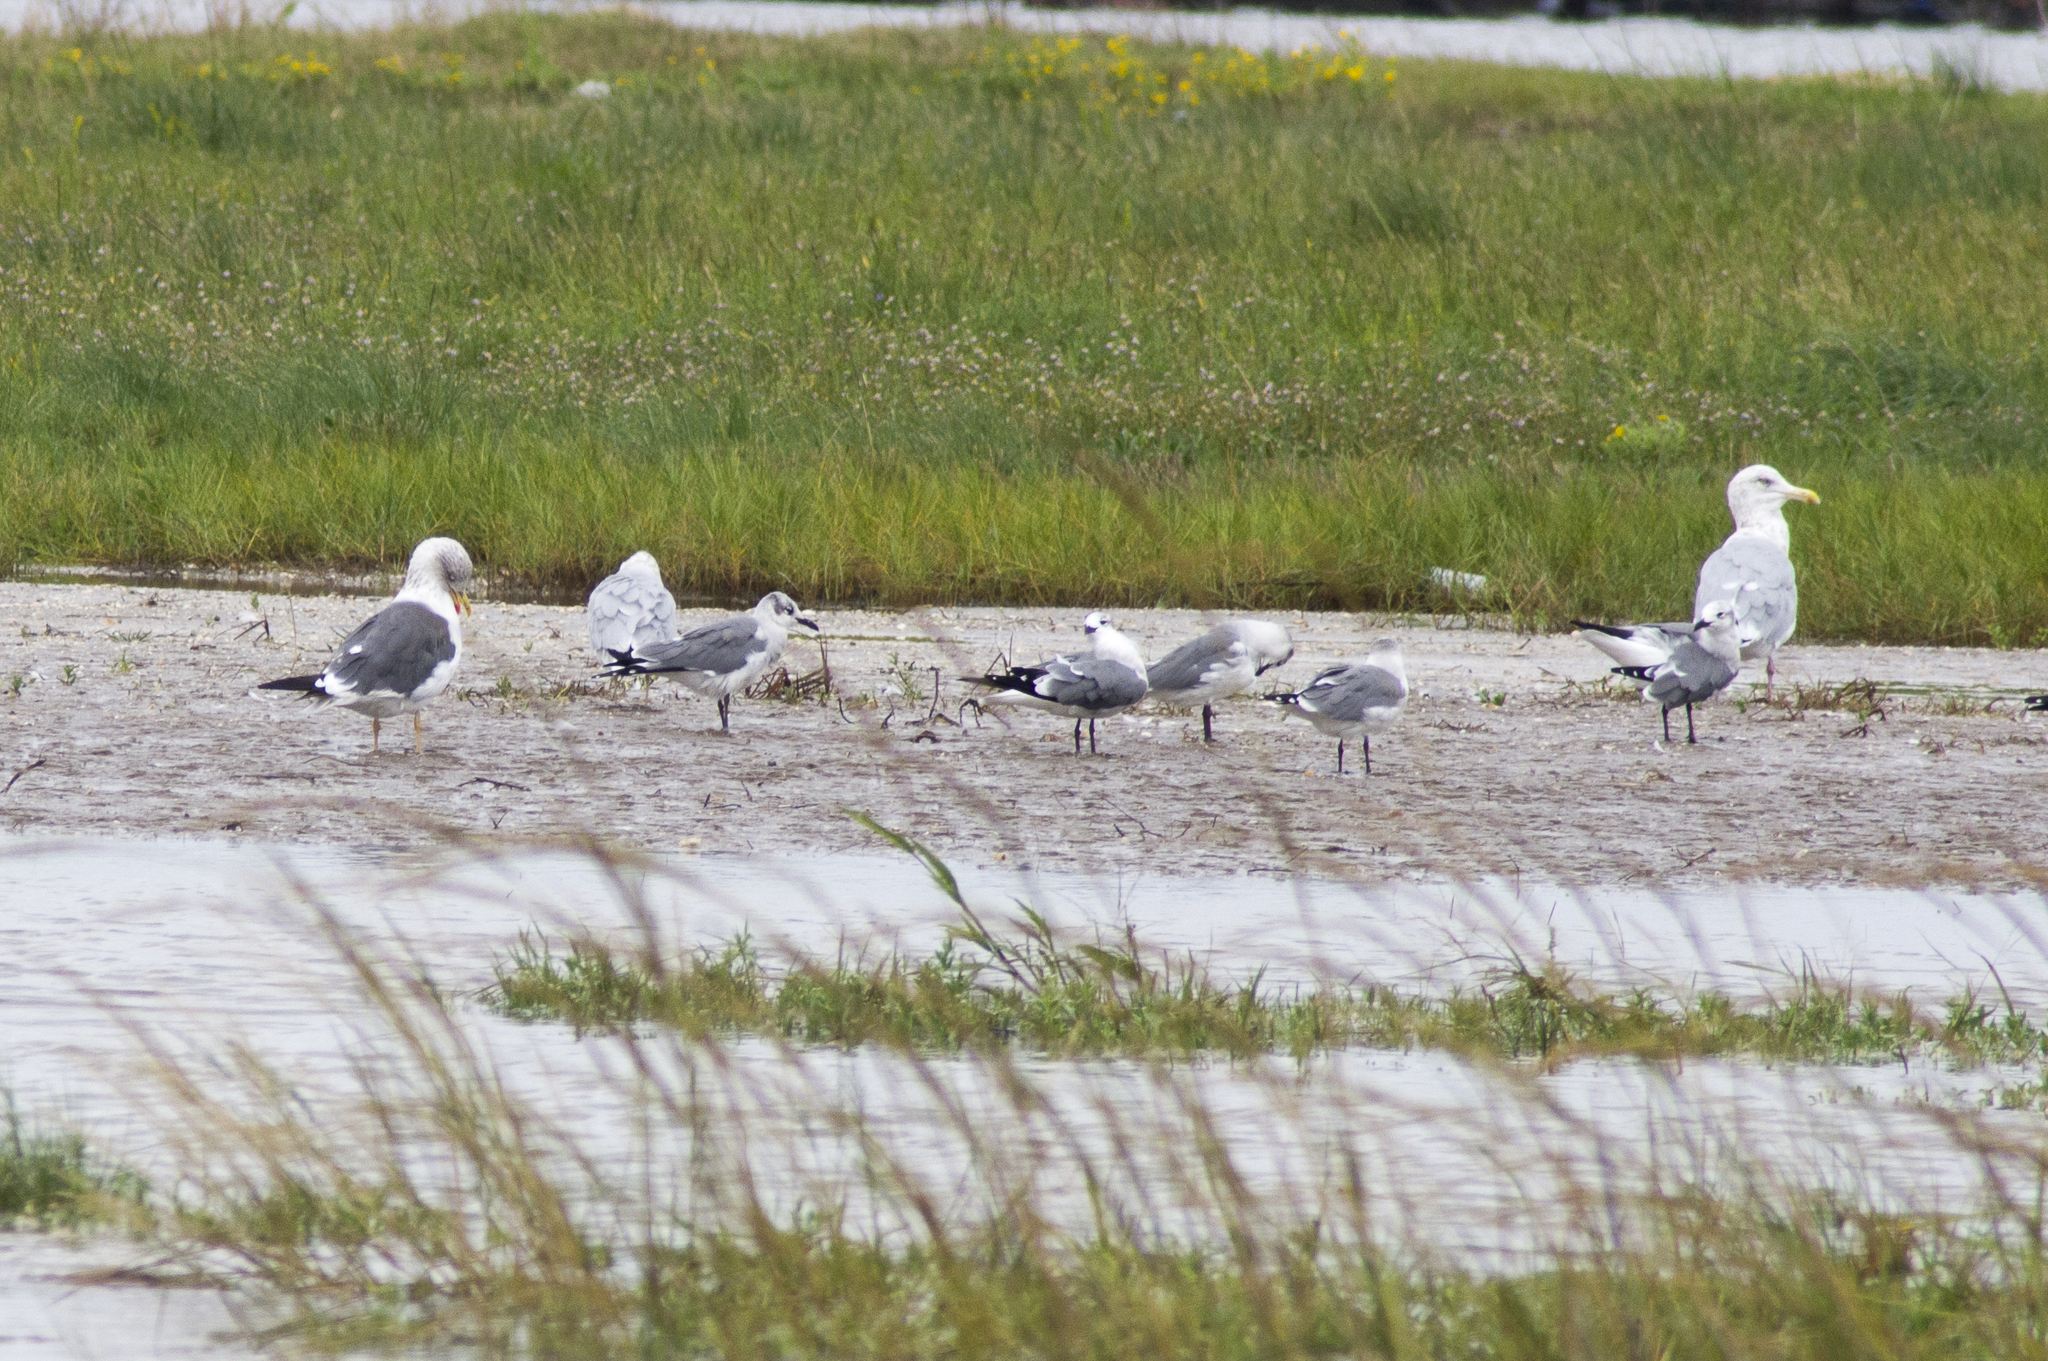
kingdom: Animalia
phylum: Chordata
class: Aves
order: Charadriiformes
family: Laridae
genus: Larus
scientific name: Larus argentatus
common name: Herring gull
